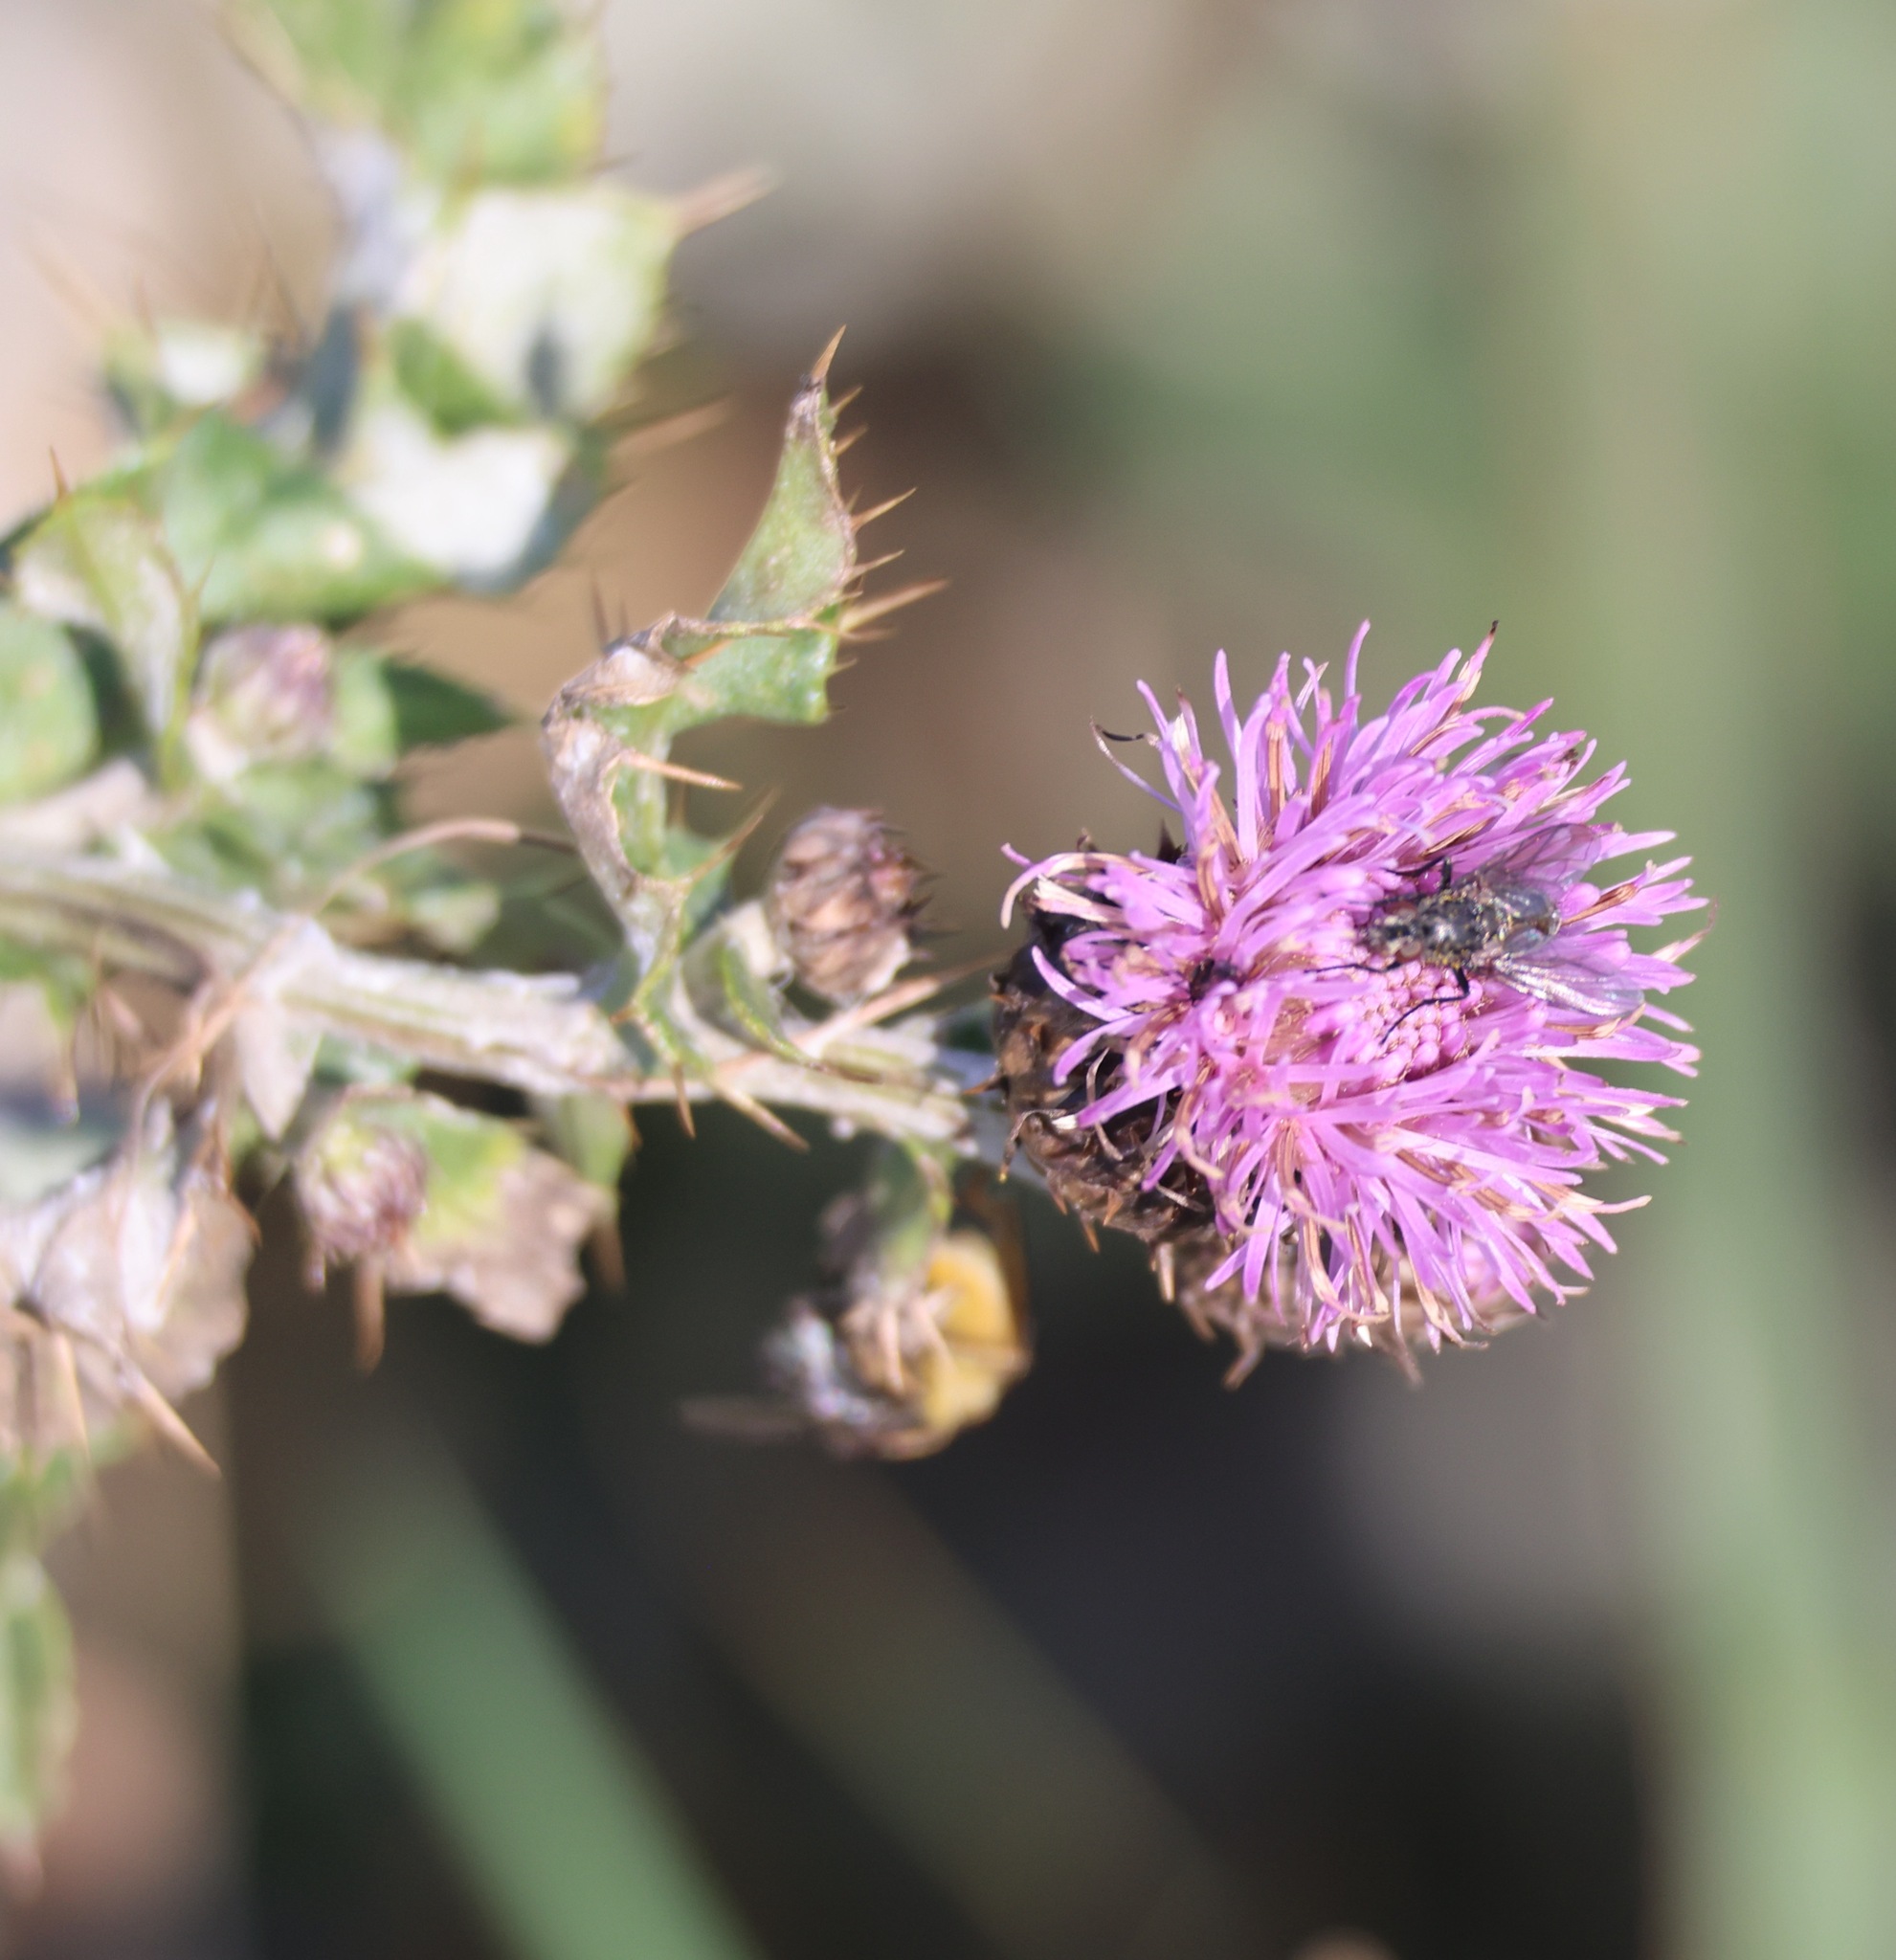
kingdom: Plantae
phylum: Tracheophyta
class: Magnoliopsida
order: Asterales
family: Asteraceae
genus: Cirsium
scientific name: Cirsium arvense
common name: Creeping thistle
